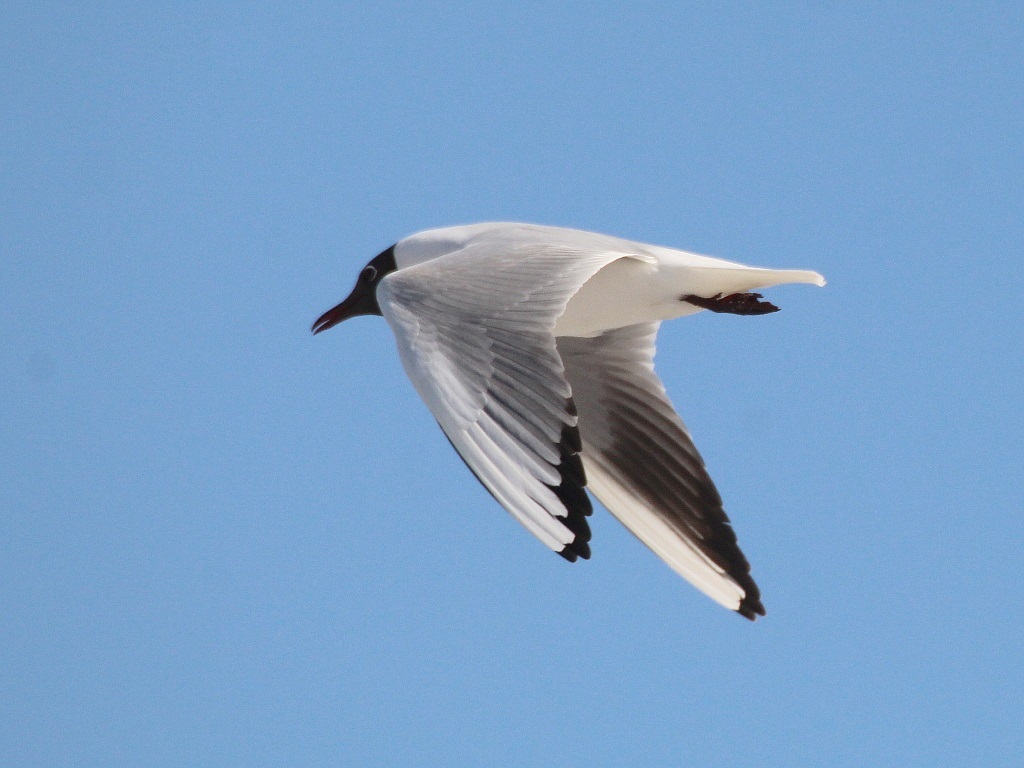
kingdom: Animalia
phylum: Chordata
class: Aves
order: Charadriiformes
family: Laridae
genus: Chroicocephalus
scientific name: Chroicocephalus ridibundus
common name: Black-headed gull
